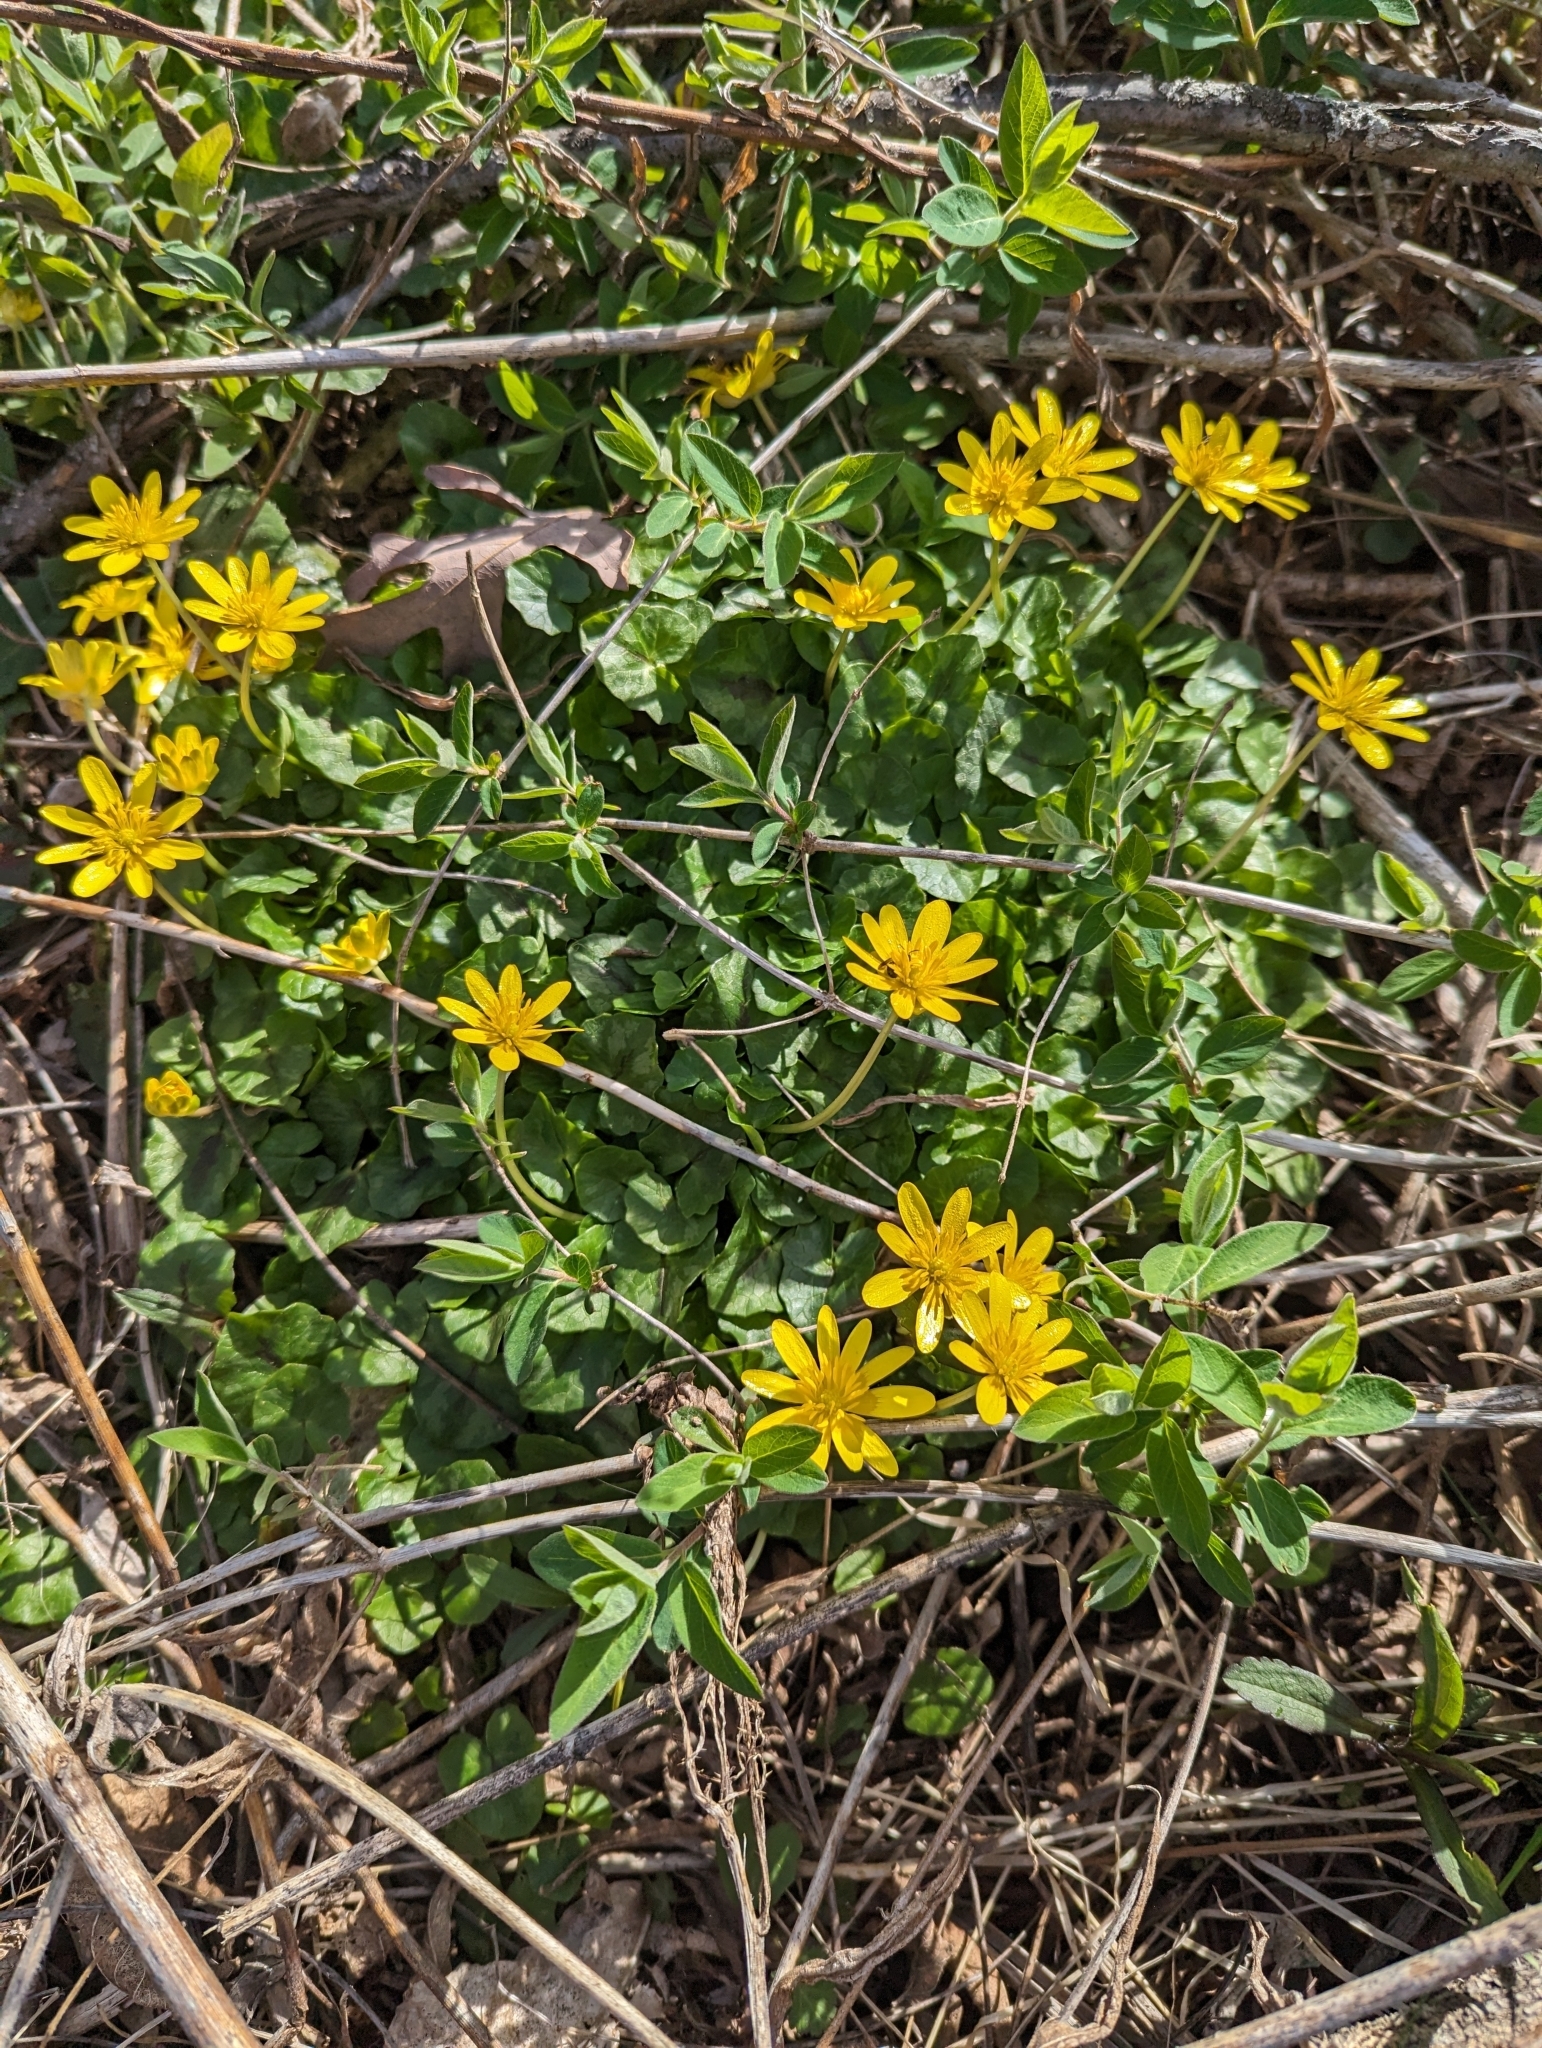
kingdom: Plantae
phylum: Tracheophyta
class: Magnoliopsida
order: Ranunculales
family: Ranunculaceae
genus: Ficaria
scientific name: Ficaria verna
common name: Lesser celandine
